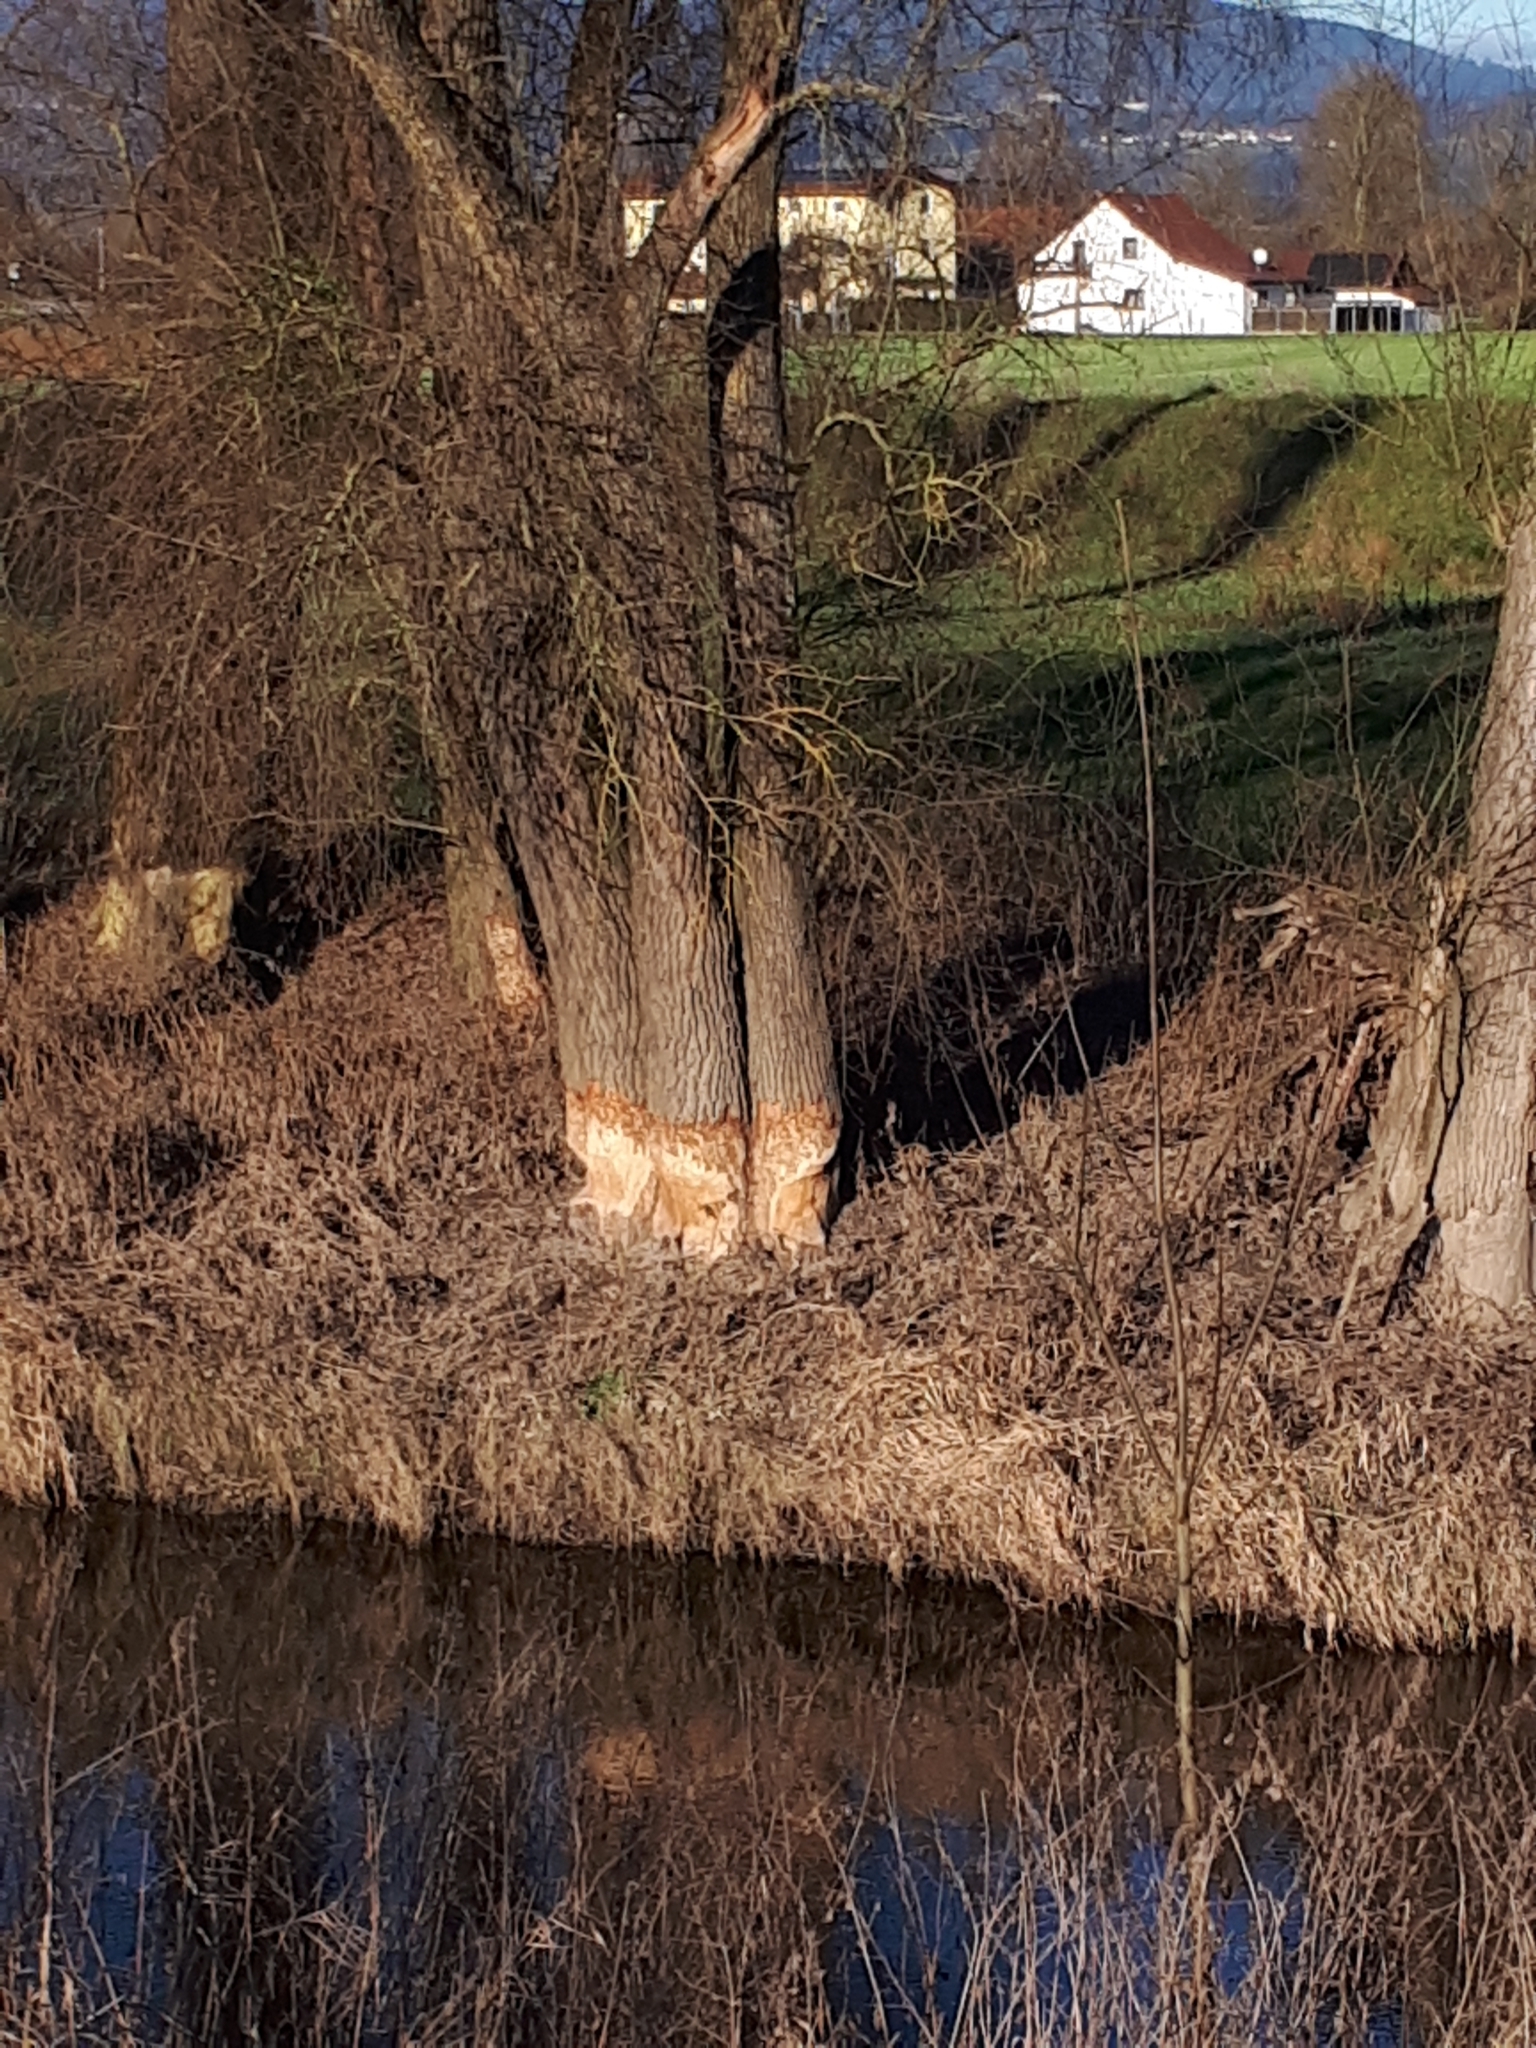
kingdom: Animalia
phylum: Chordata
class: Mammalia
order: Rodentia
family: Castoridae
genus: Castor
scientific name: Castor fiber
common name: Eurasian beaver
